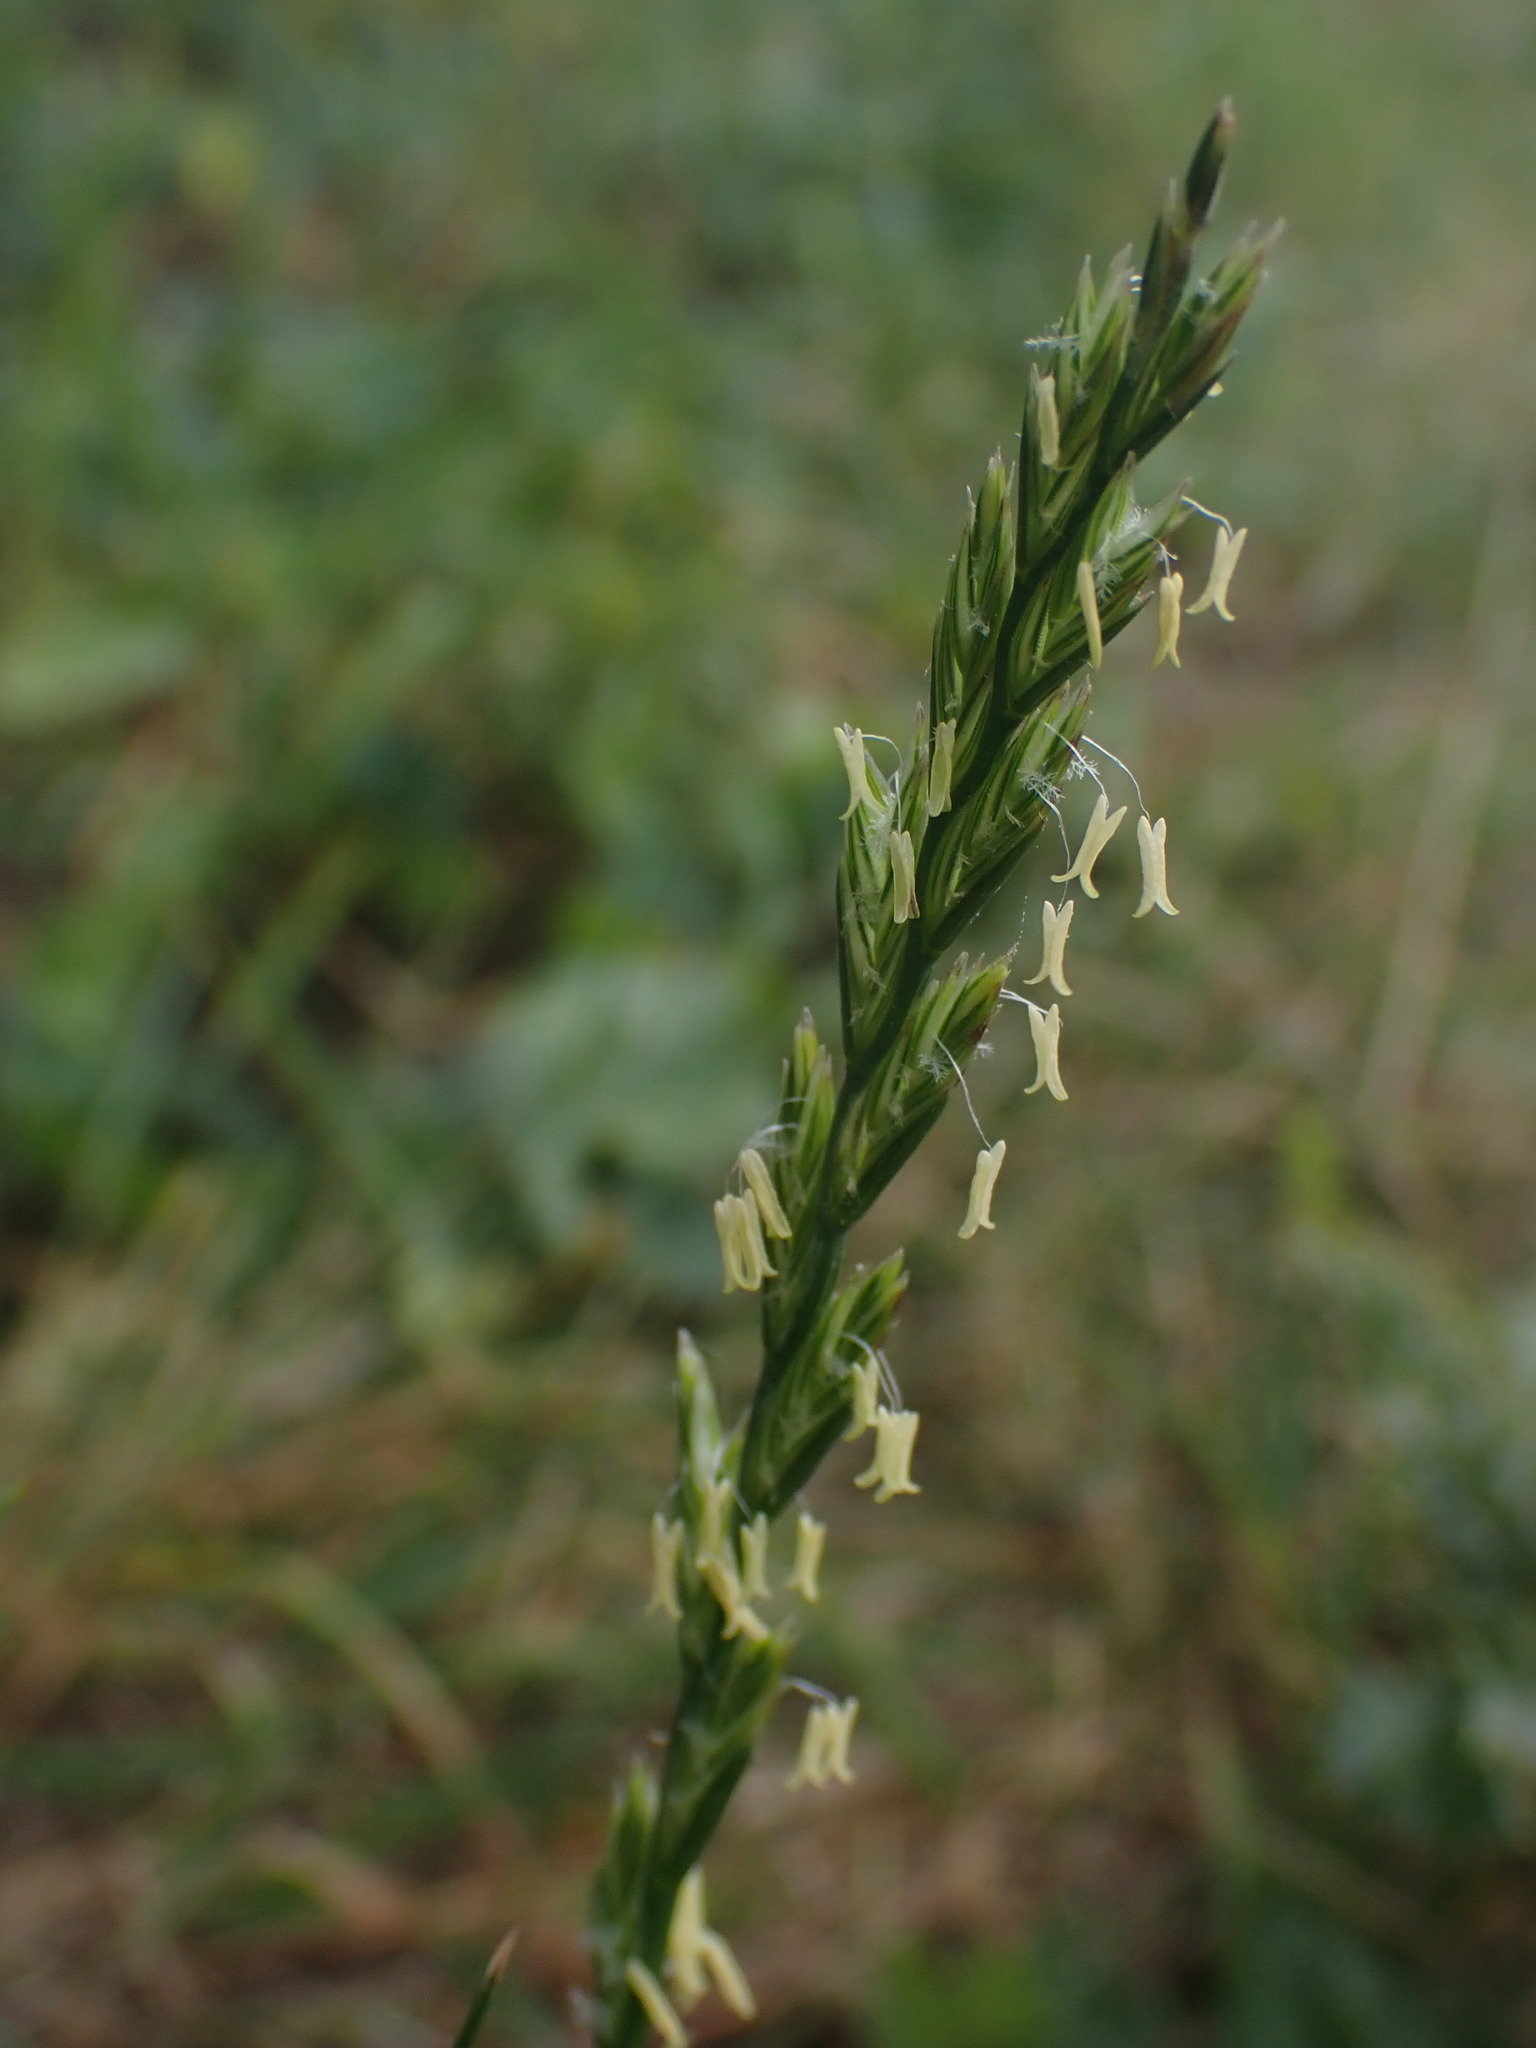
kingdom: Plantae
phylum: Tracheophyta
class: Liliopsida
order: Poales
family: Poaceae
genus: Lolium
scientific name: Lolium perenne
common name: Perennial ryegrass
